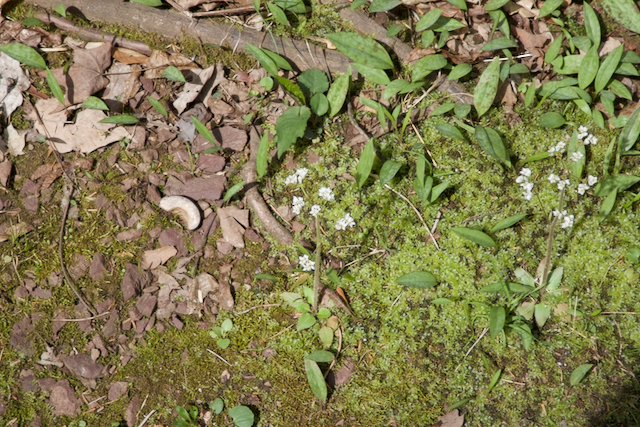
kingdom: Plantae
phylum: Tracheophyta
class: Magnoliopsida
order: Saxifragales
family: Saxifragaceae
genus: Micranthes
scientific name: Micranthes virginiensis
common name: Early saxifrage
